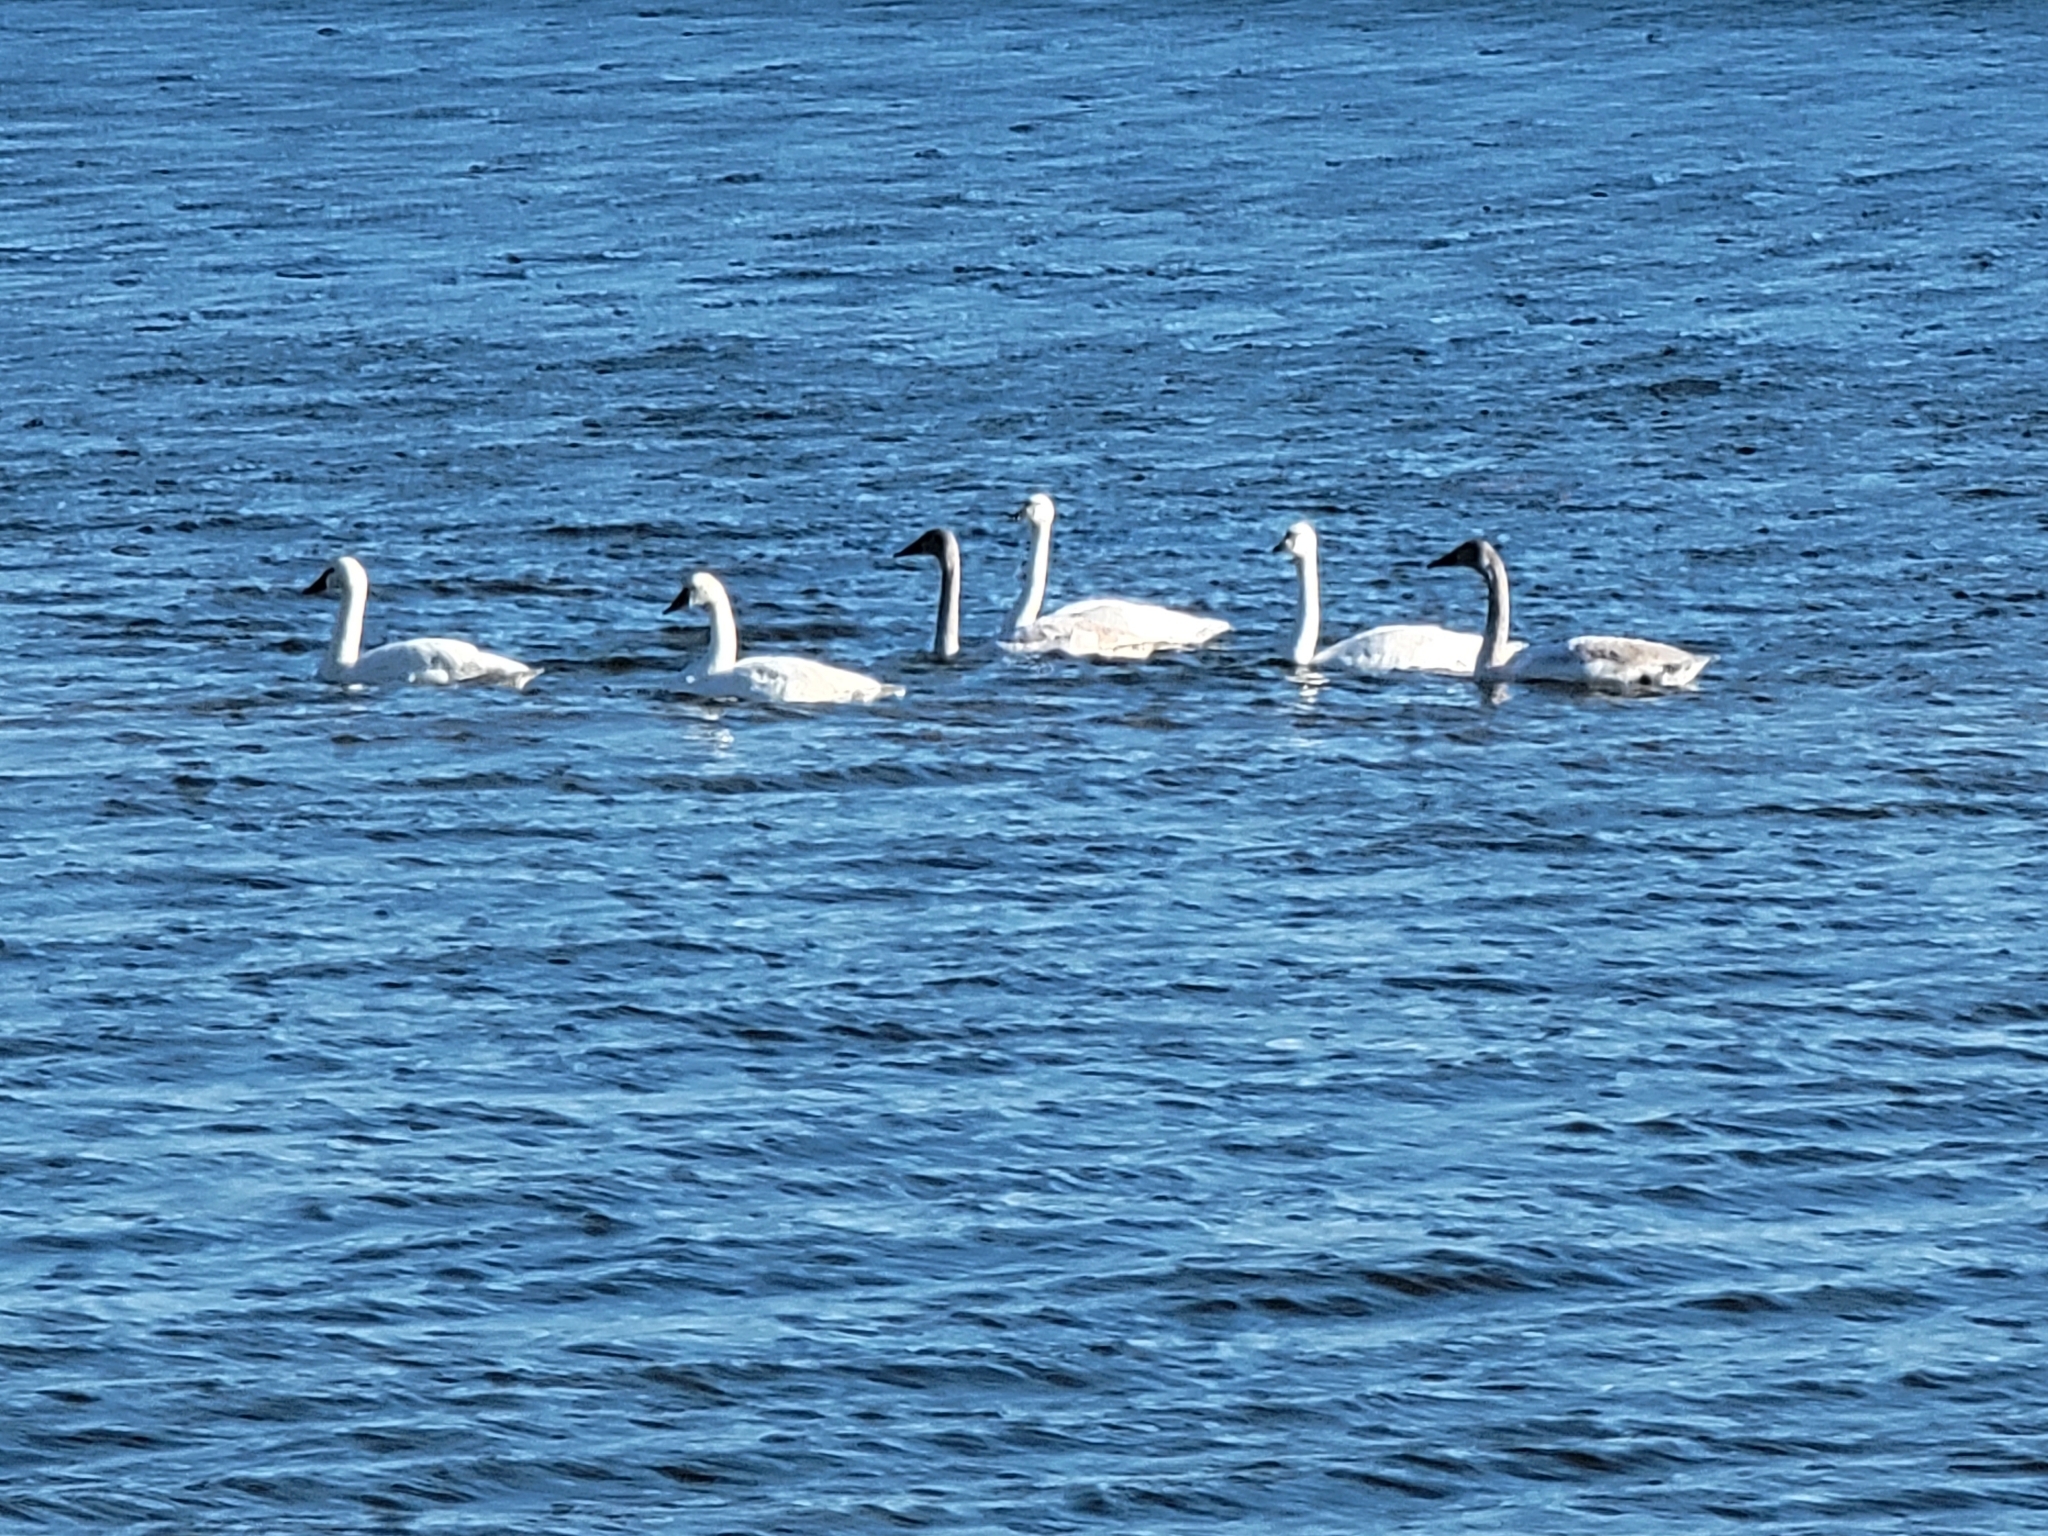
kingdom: Animalia
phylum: Chordata
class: Aves
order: Anseriformes
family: Anatidae
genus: Cygnus
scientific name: Cygnus columbianus
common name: Tundra swan
